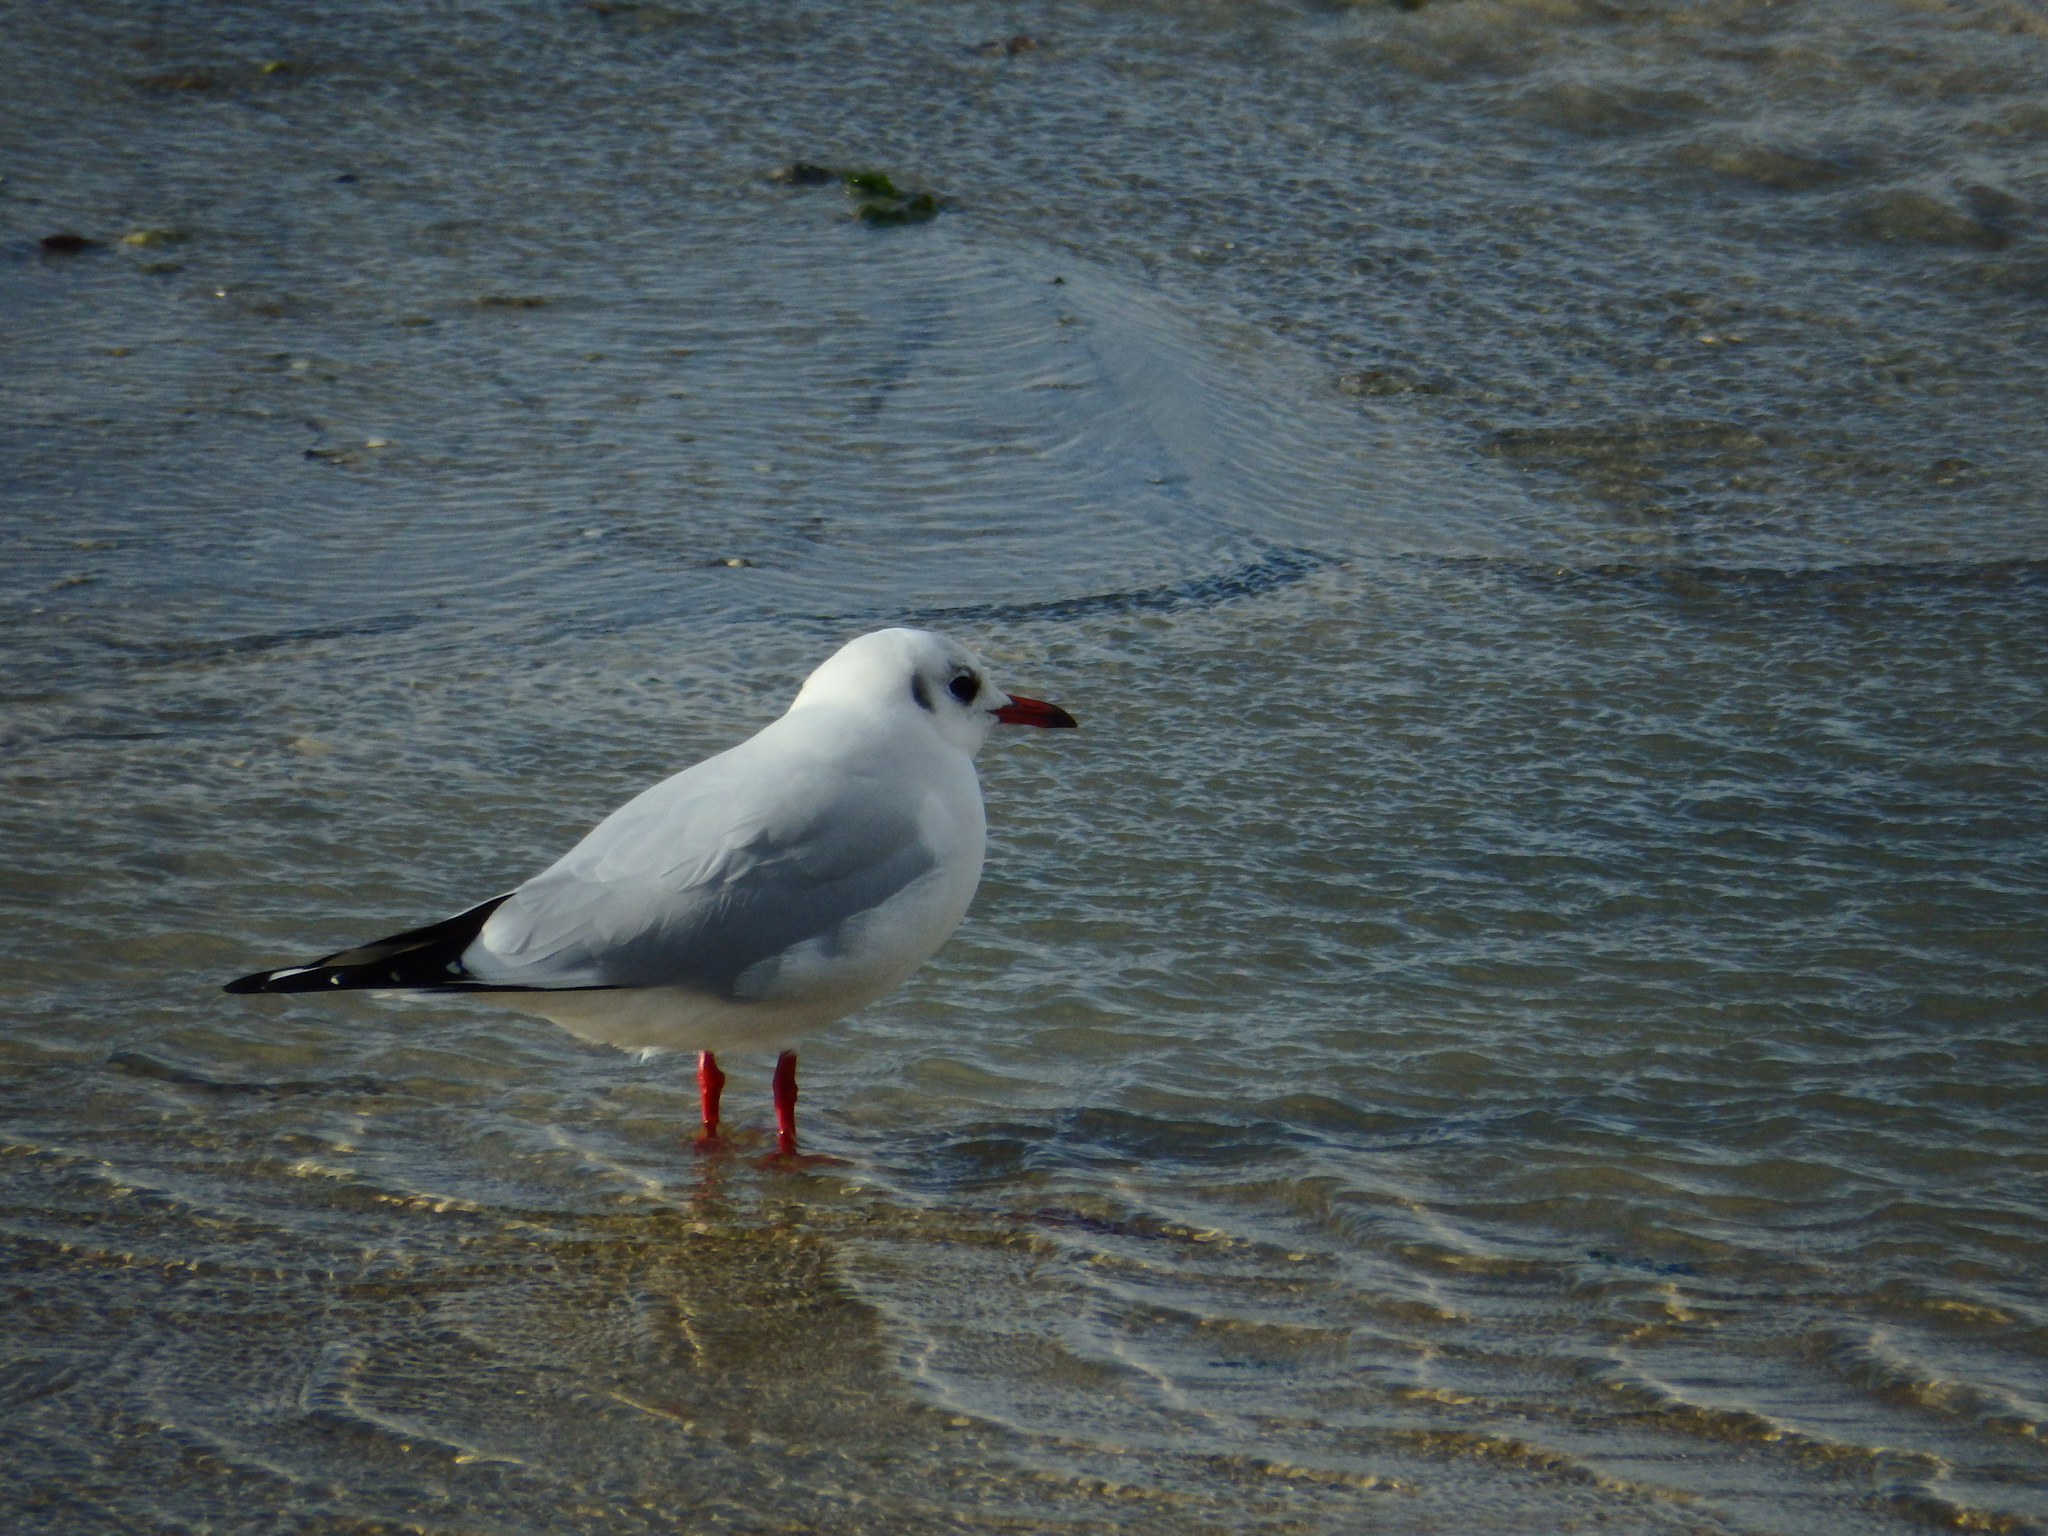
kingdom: Animalia
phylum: Chordata
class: Aves
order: Charadriiformes
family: Laridae
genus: Chroicocephalus
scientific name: Chroicocephalus ridibundus
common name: Black-headed gull
